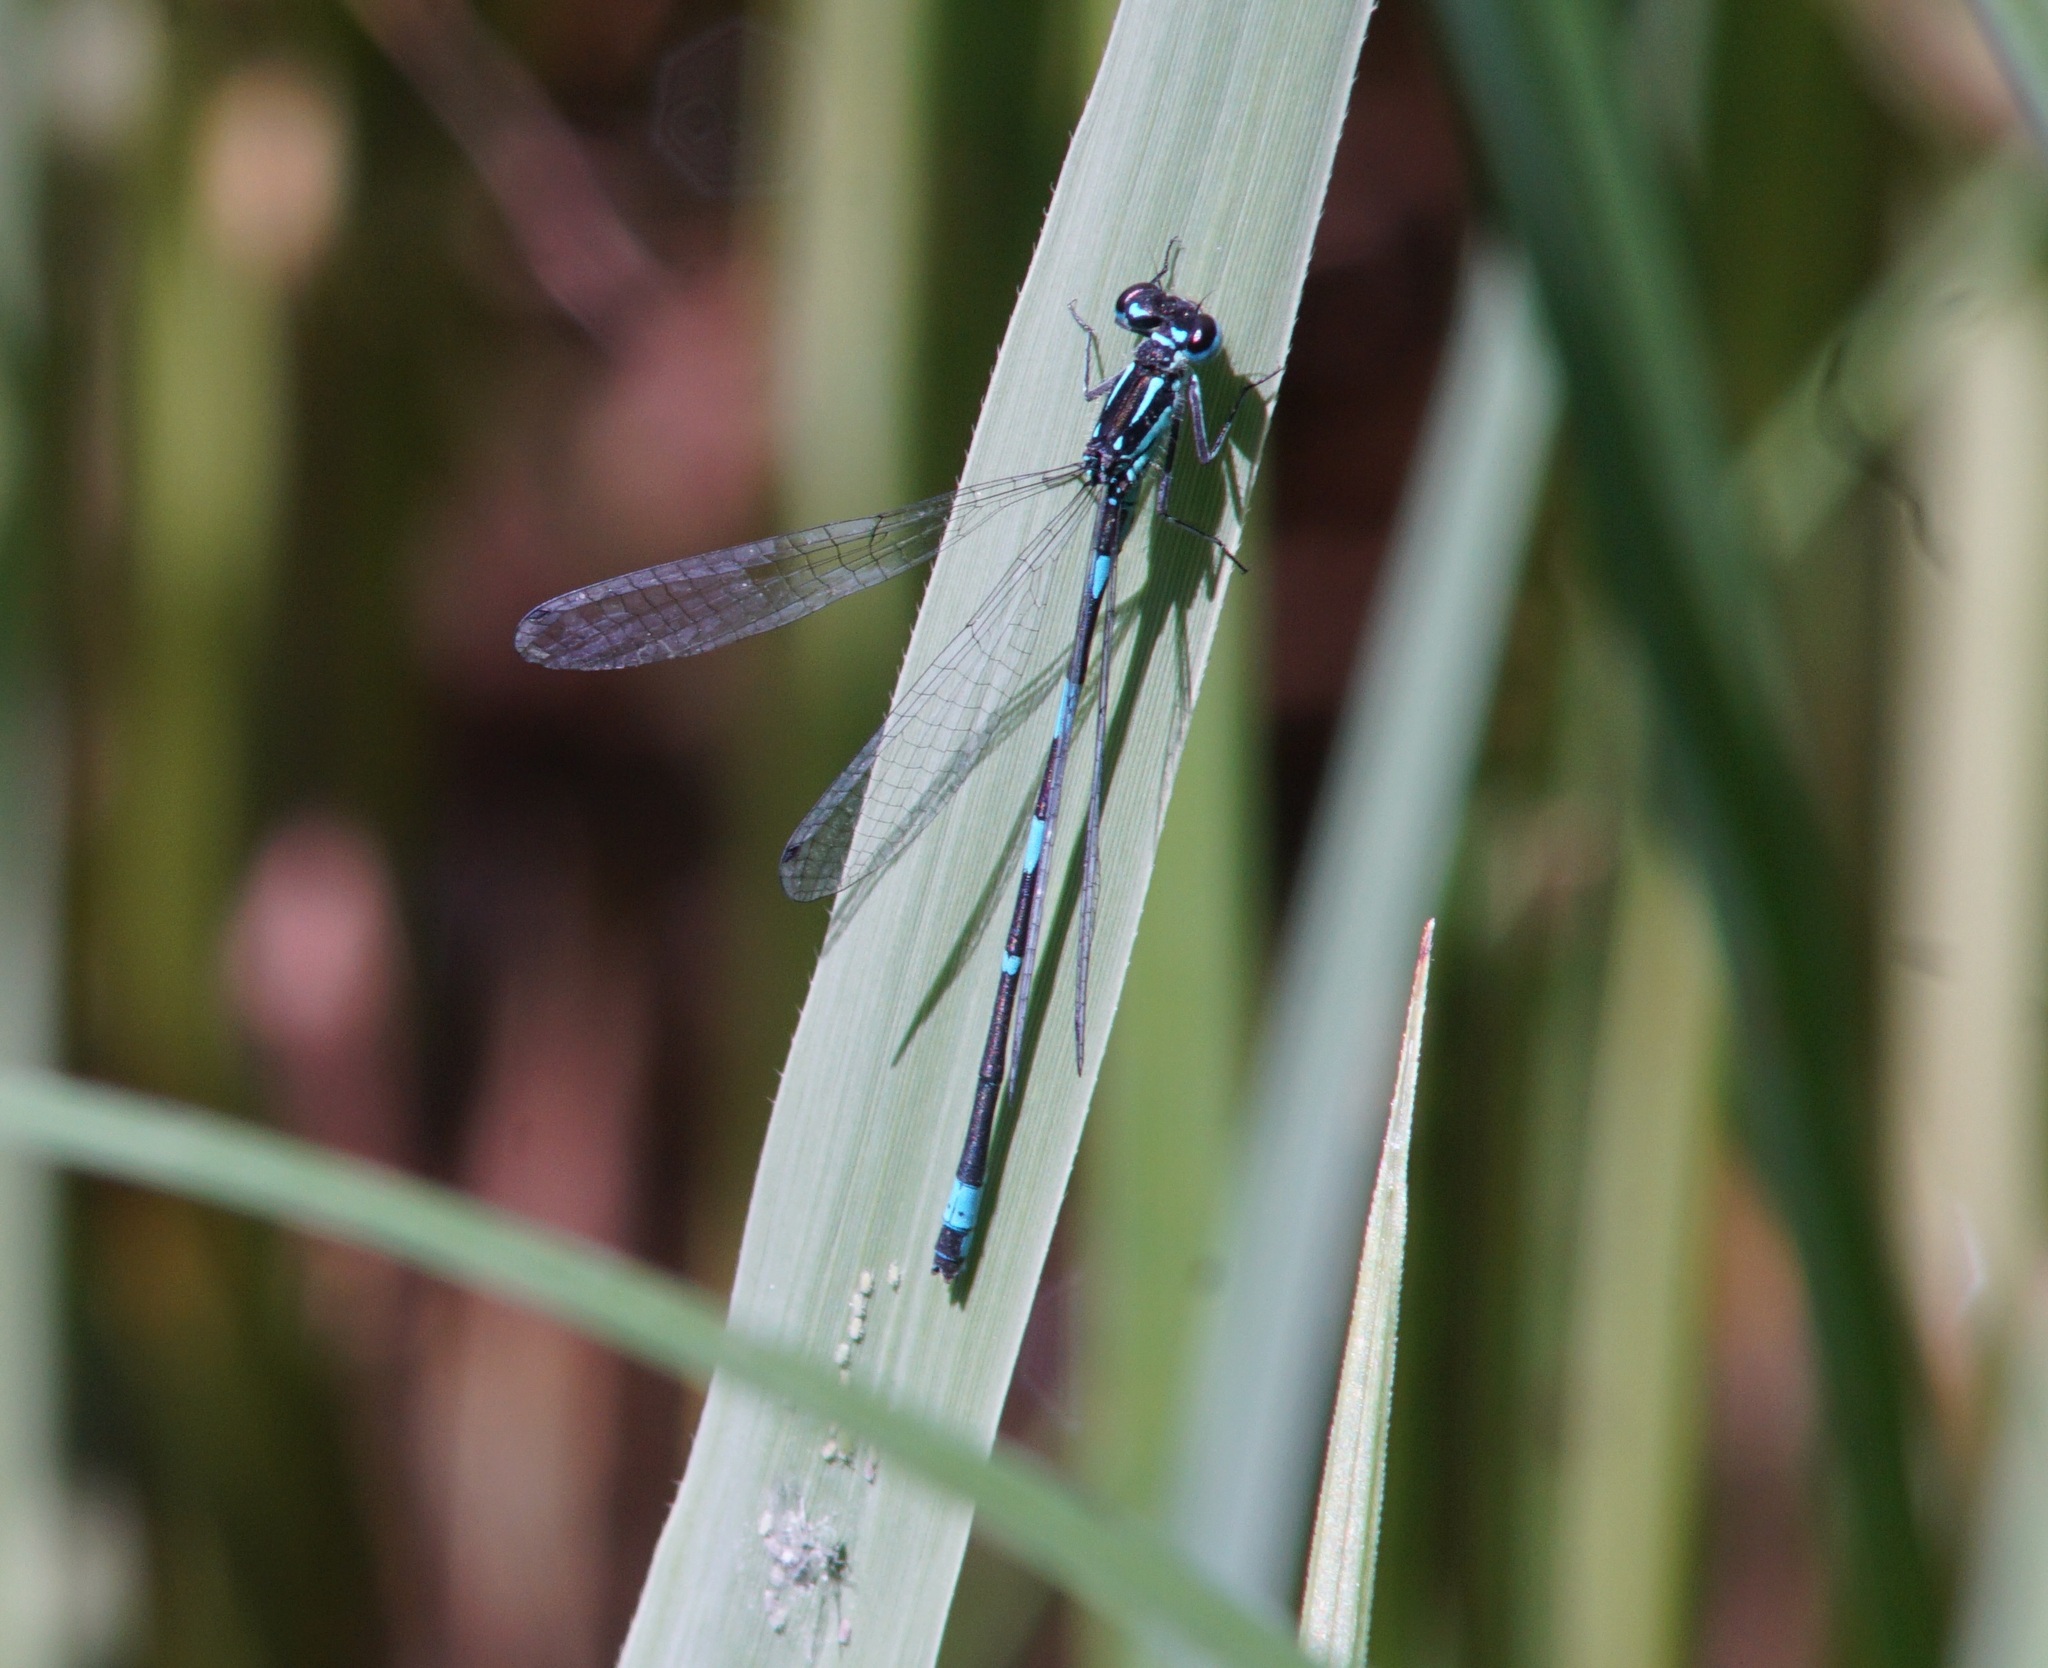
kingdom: Animalia
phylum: Arthropoda
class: Insecta
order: Odonata
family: Coenagrionidae
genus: Coenagrion
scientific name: Coenagrion pulchellum
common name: Variable bluet
